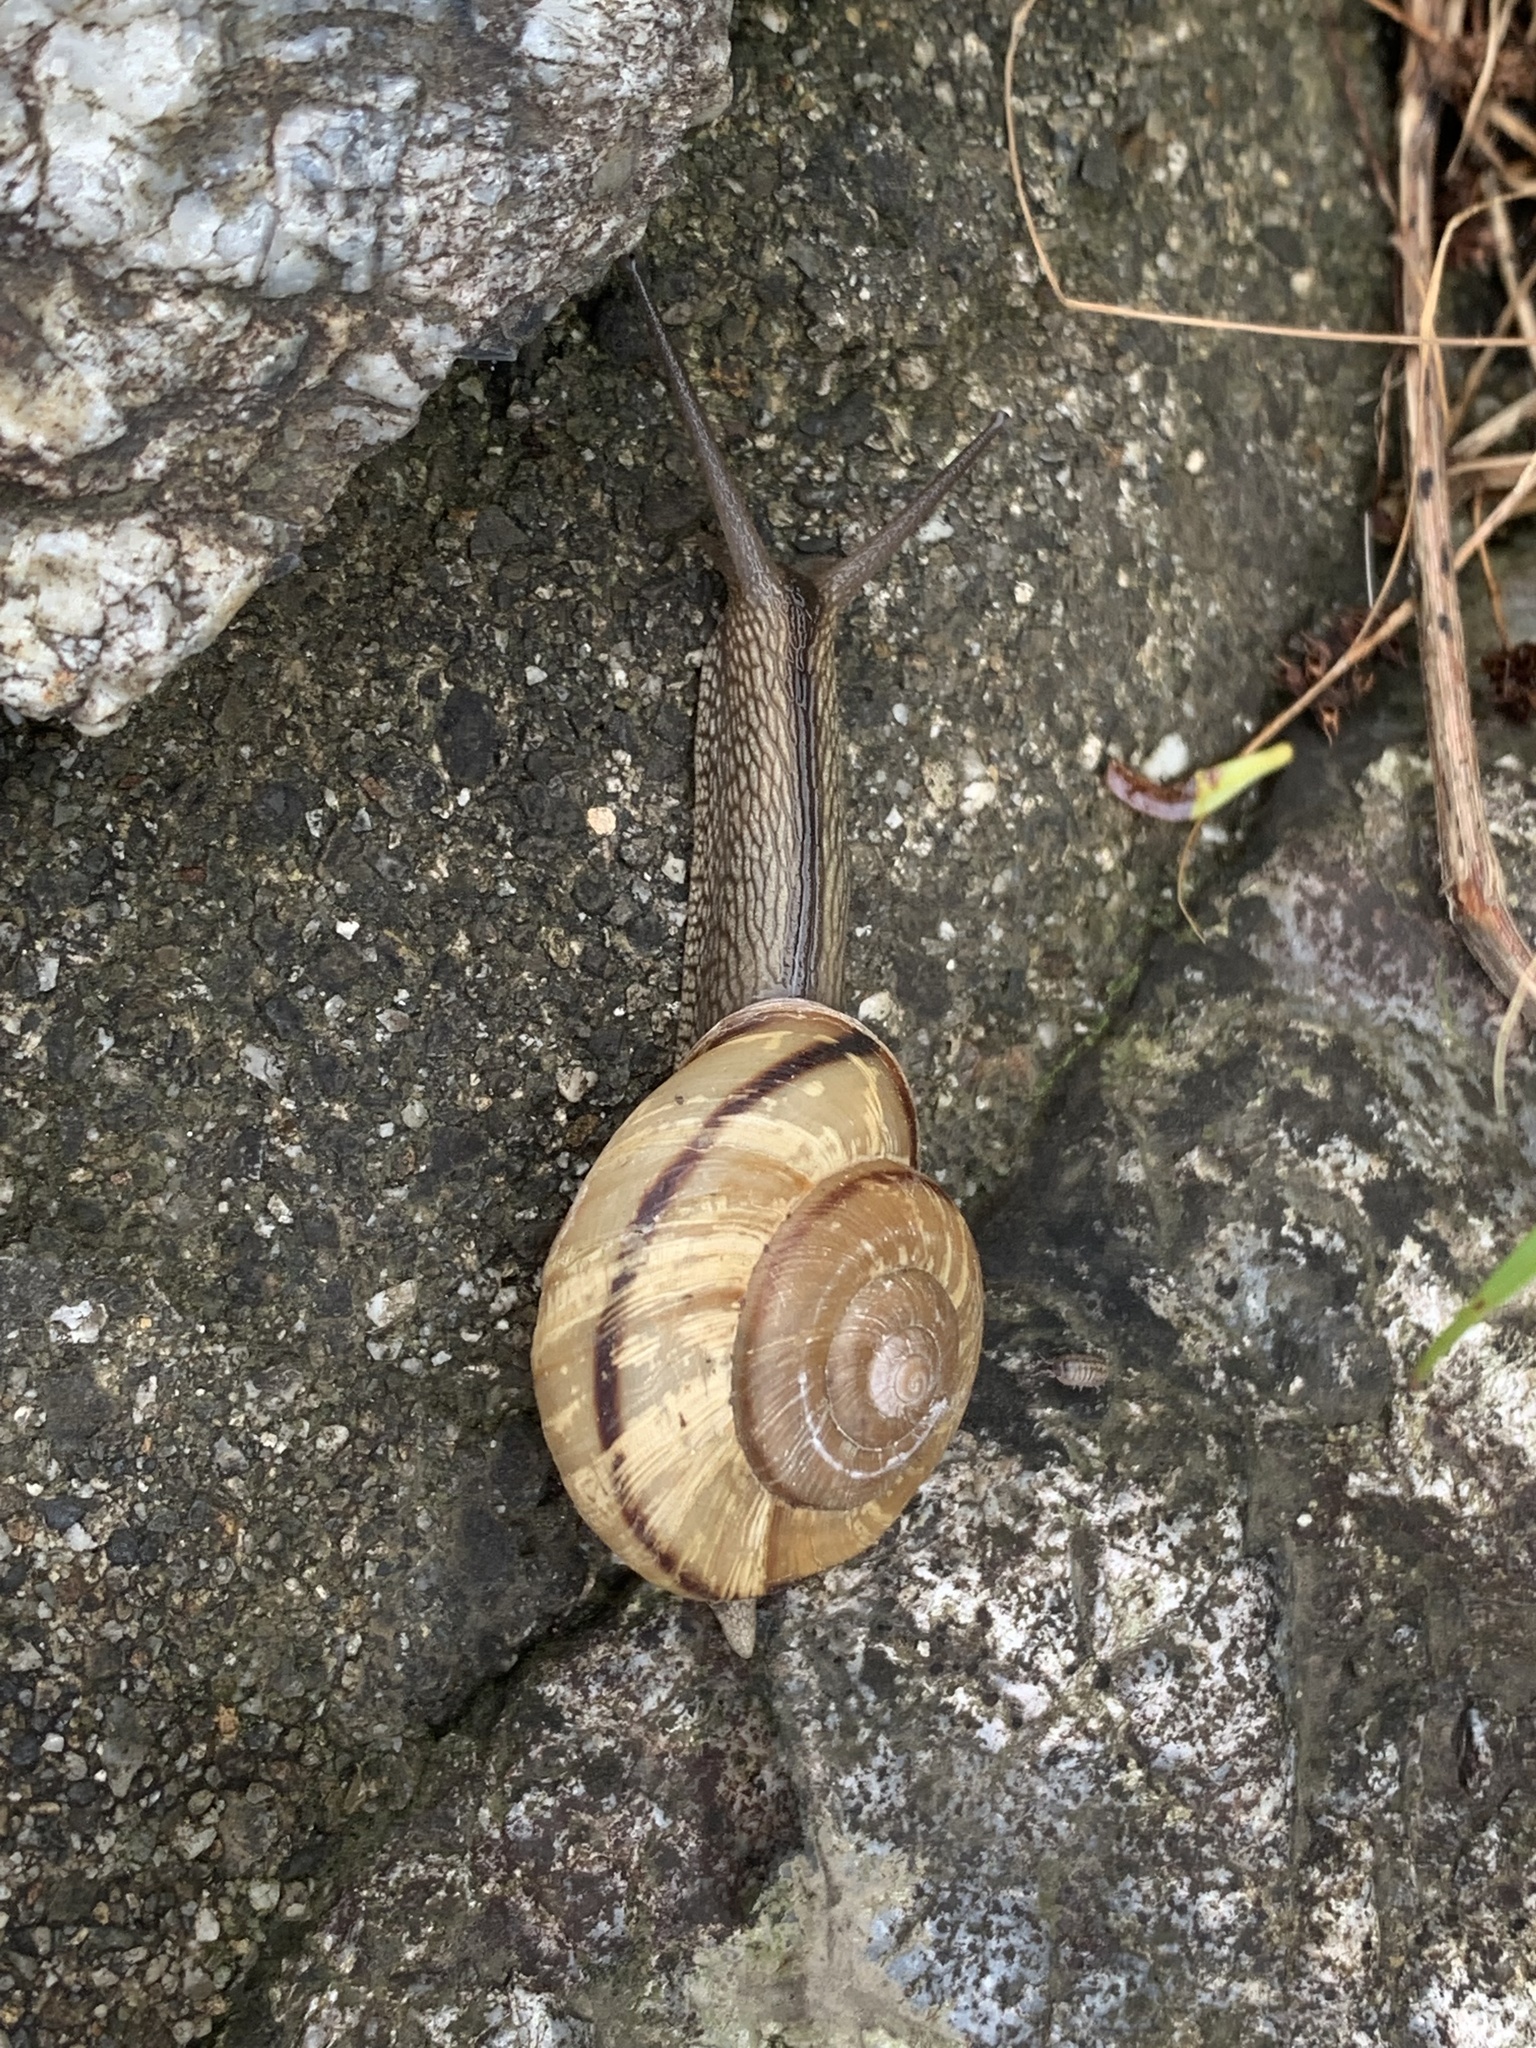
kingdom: Animalia
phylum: Mollusca
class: Gastropoda
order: Stylommatophora
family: Camaenidae
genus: Euhadra
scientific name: Euhadra sandai
